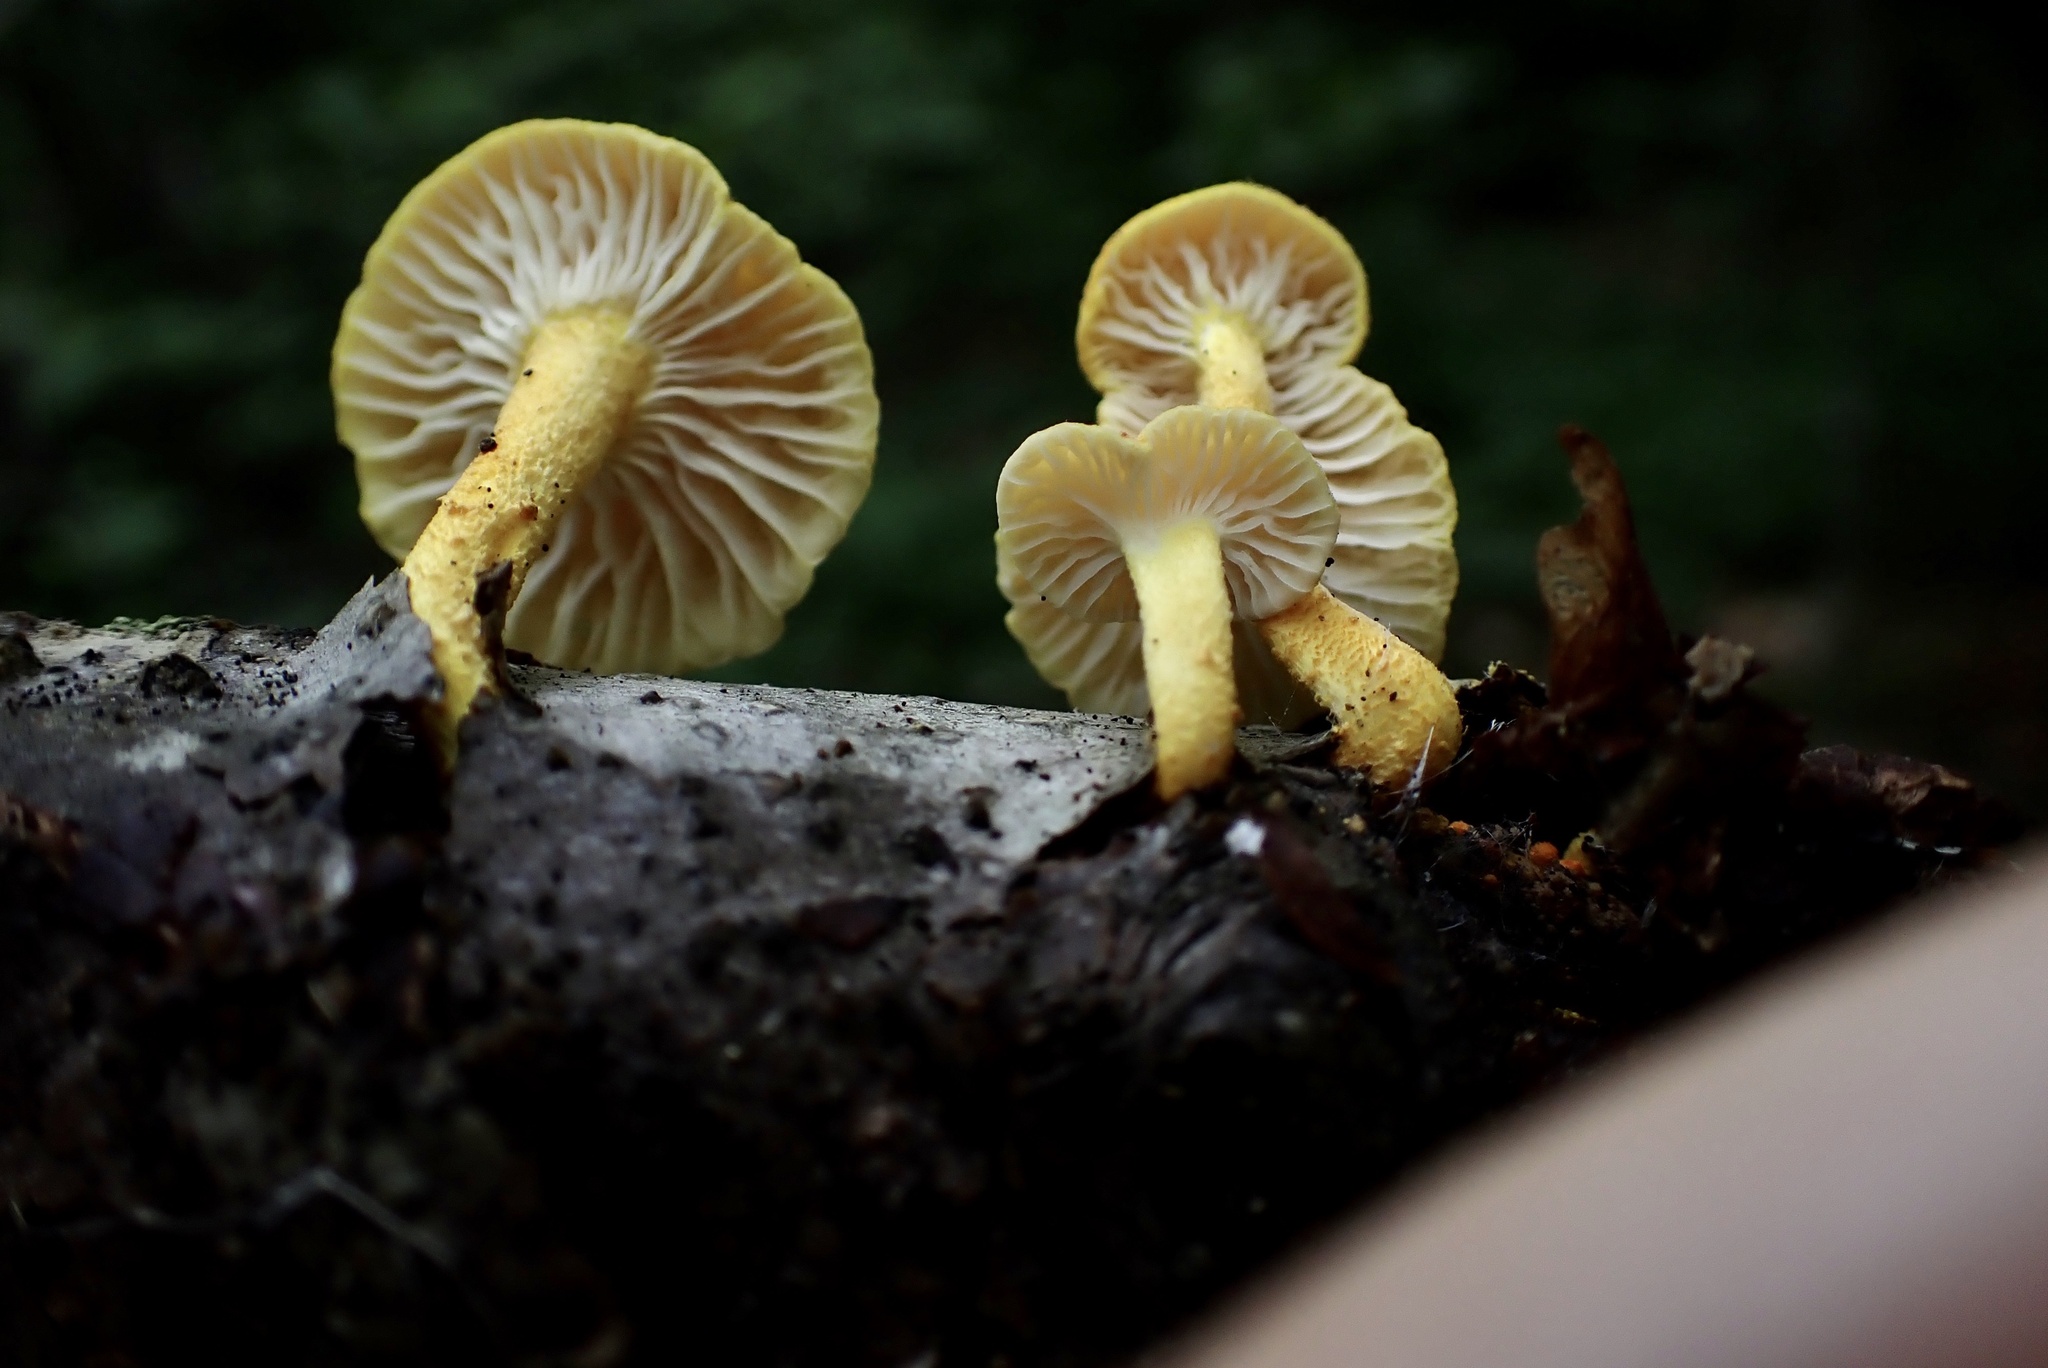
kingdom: Fungi
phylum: Basidiomycota
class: Agaricomycetes
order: Agaricales
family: Physalacriaceae
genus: Cyptotrama
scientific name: Cyptotrama chrysopepla
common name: Golden coincap
